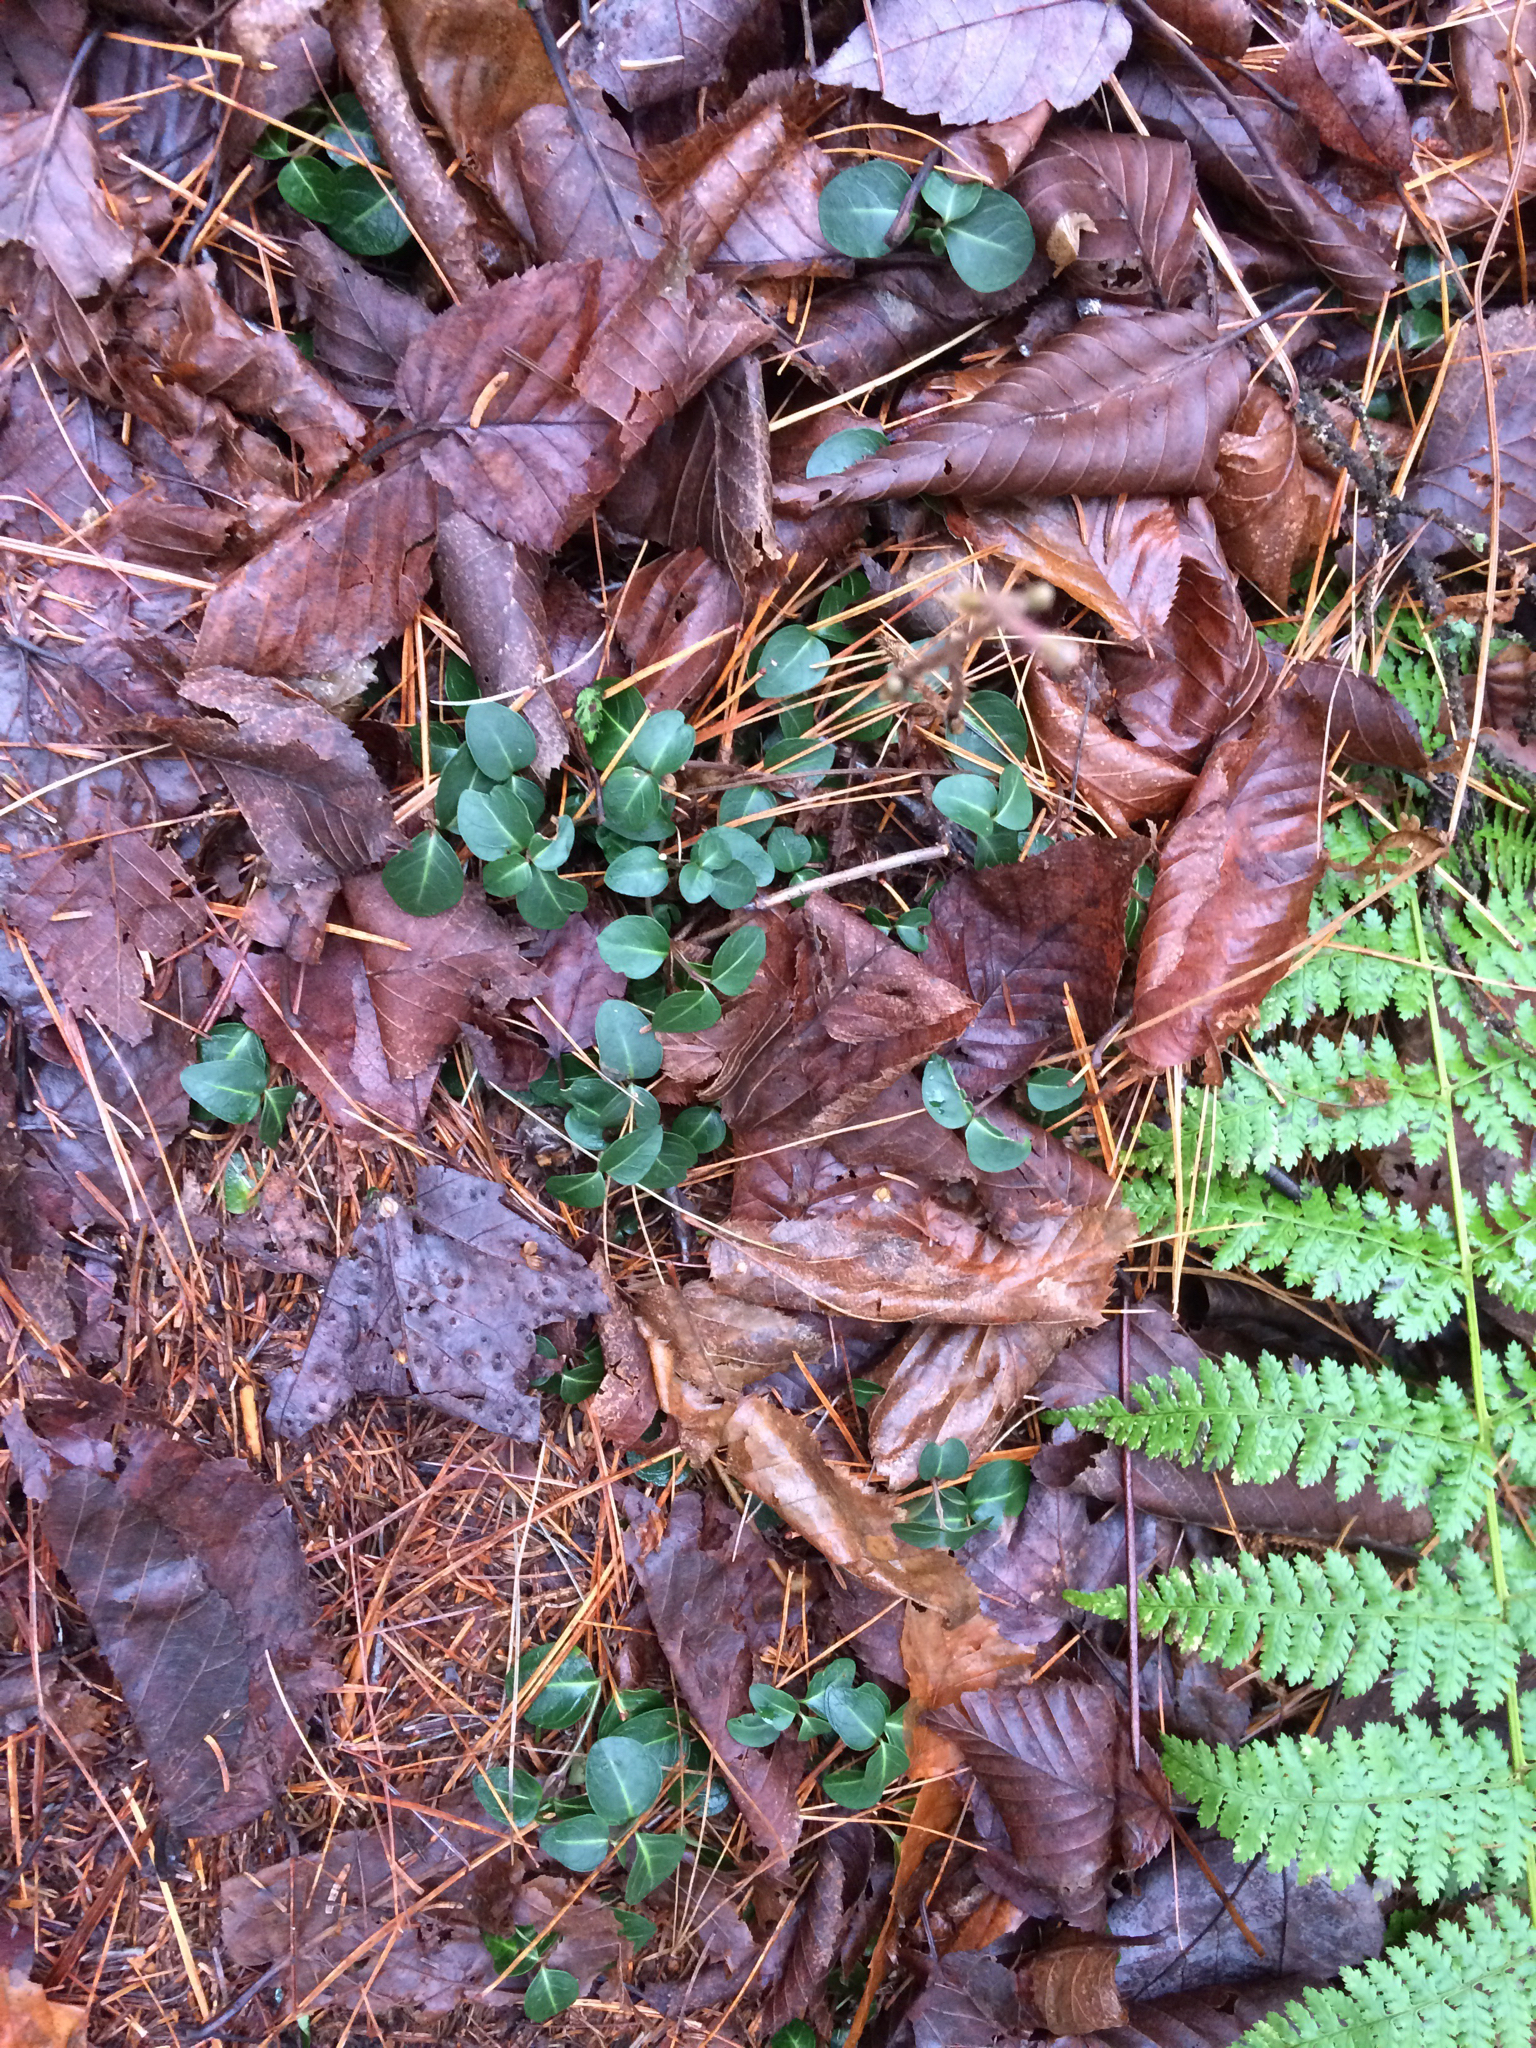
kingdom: Plantae
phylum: Tracheophyta
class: Magnoliopsida
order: Gentianales
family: Rubiaceae
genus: Mitchella
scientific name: Mitchella repens
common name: Partridge-berry
